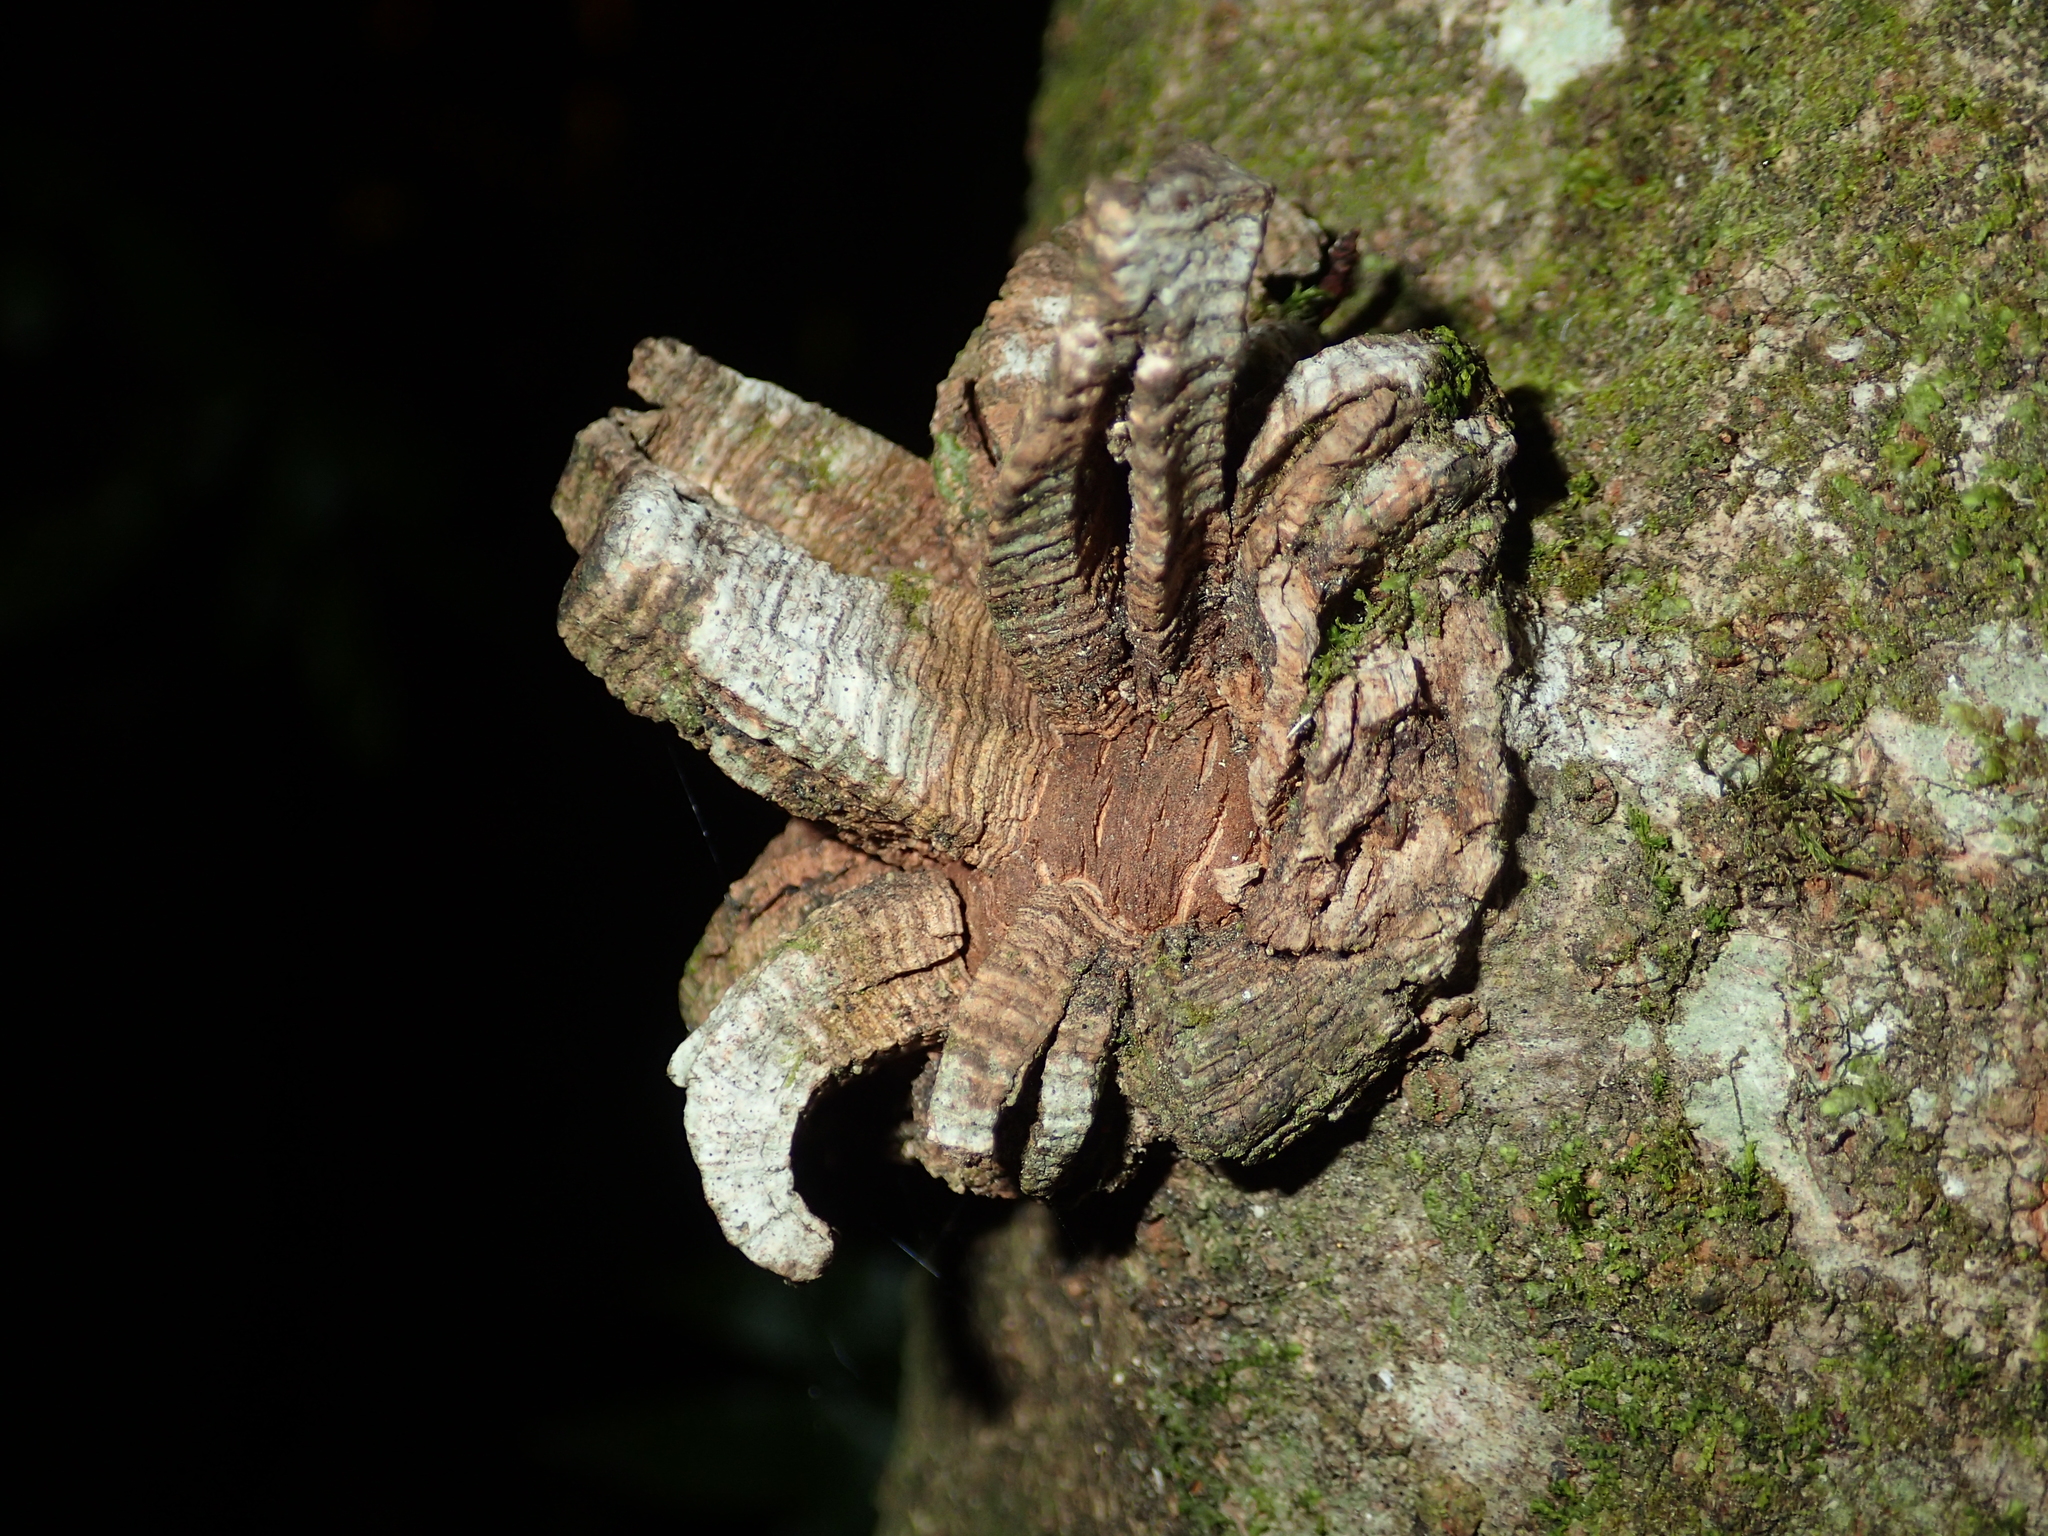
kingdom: Plantae
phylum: Tracheophyta
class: Magnoliopsida
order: Ericales
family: Primulaceae
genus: Myrsine
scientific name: Myrsine australis
